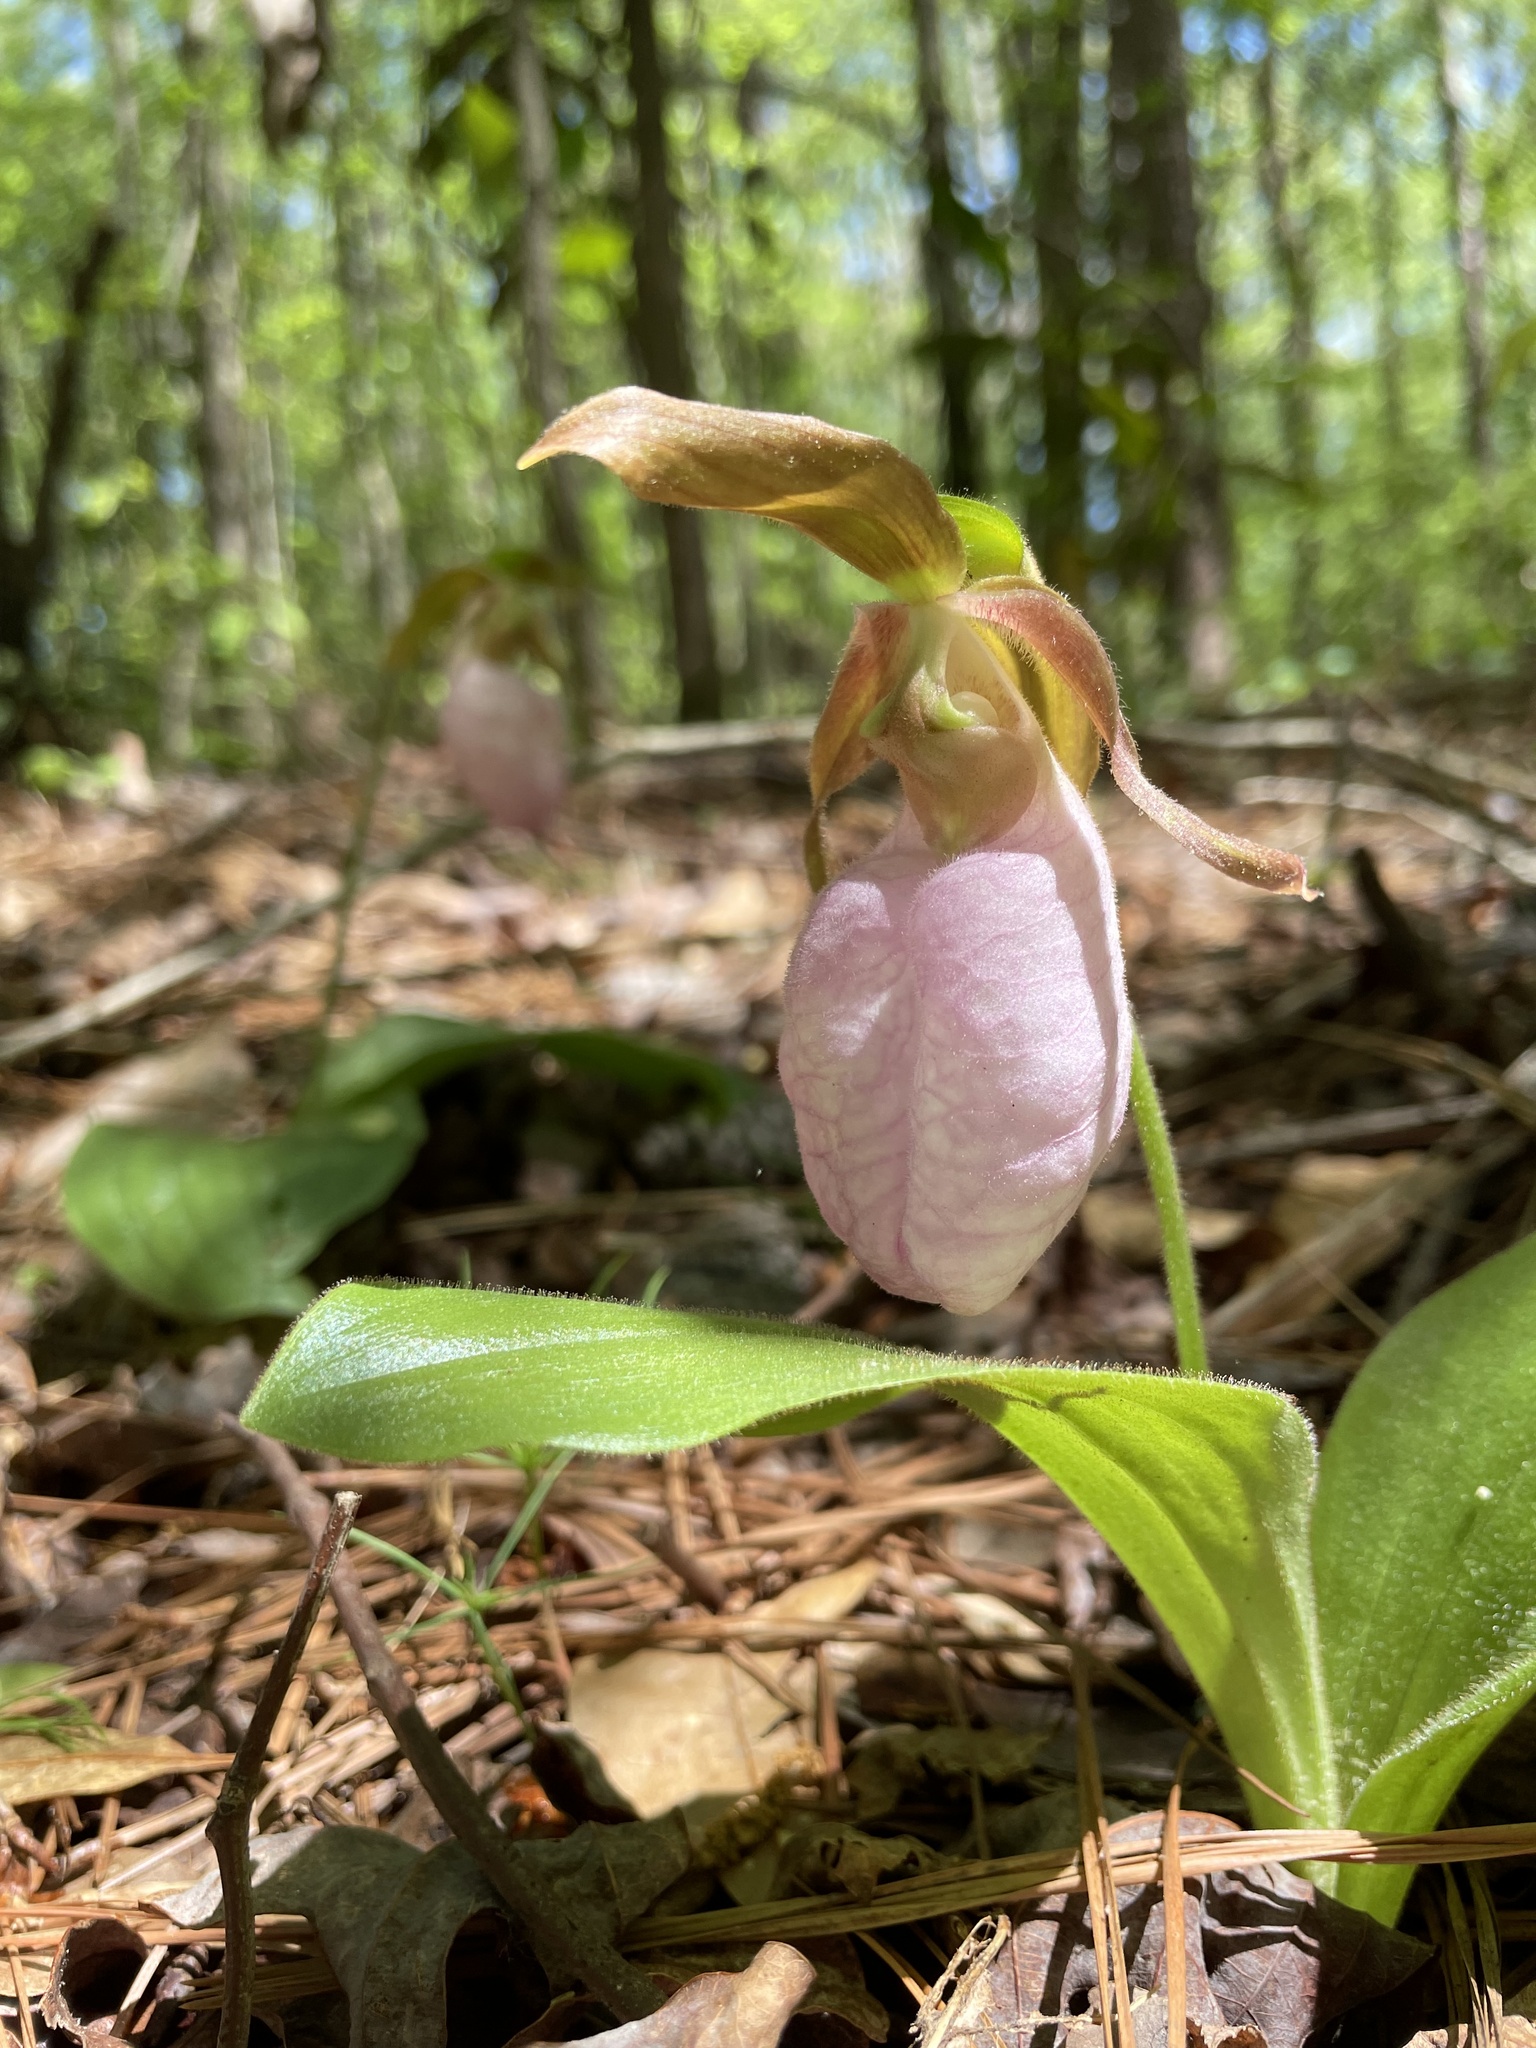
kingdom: Plantae
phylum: Tracheophyta
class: Liliopsida
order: Asparagales
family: Orchidaceae
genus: Cypripedium
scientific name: Cypripedium acaule
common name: Pink lady's-slipper
